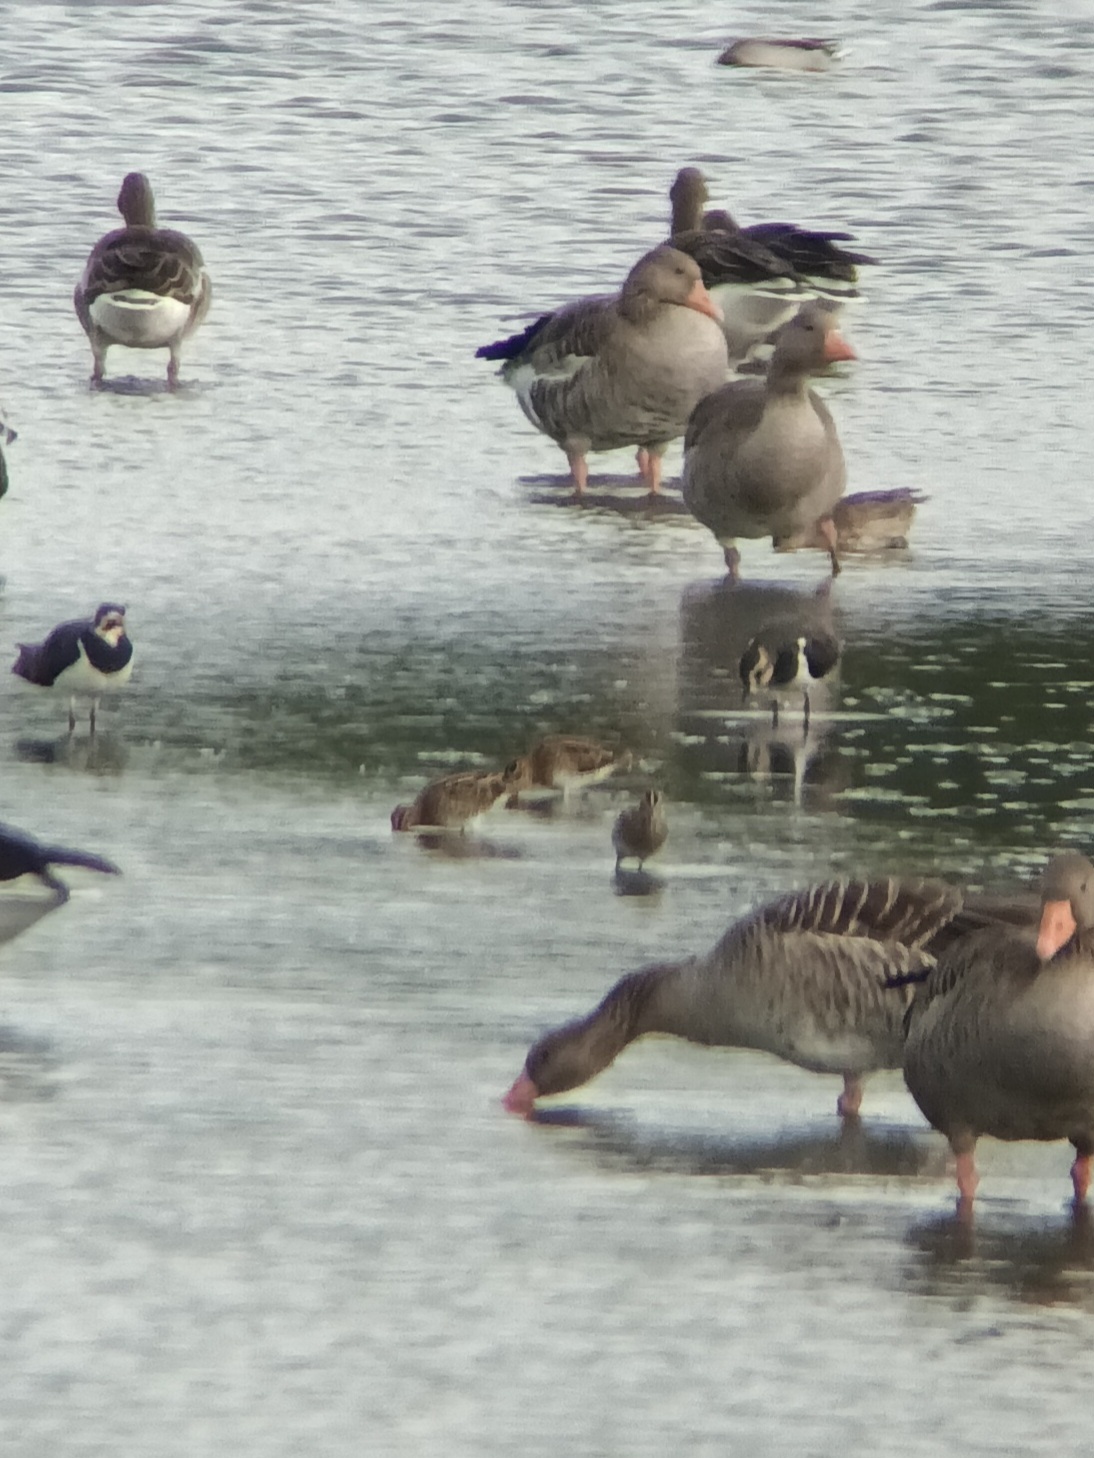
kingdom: Animalia
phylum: Chordata
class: Aves
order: Charadriiformes
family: Scolopacidae
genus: Gallinago
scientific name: Gallinago gallinago
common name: Common snipe
